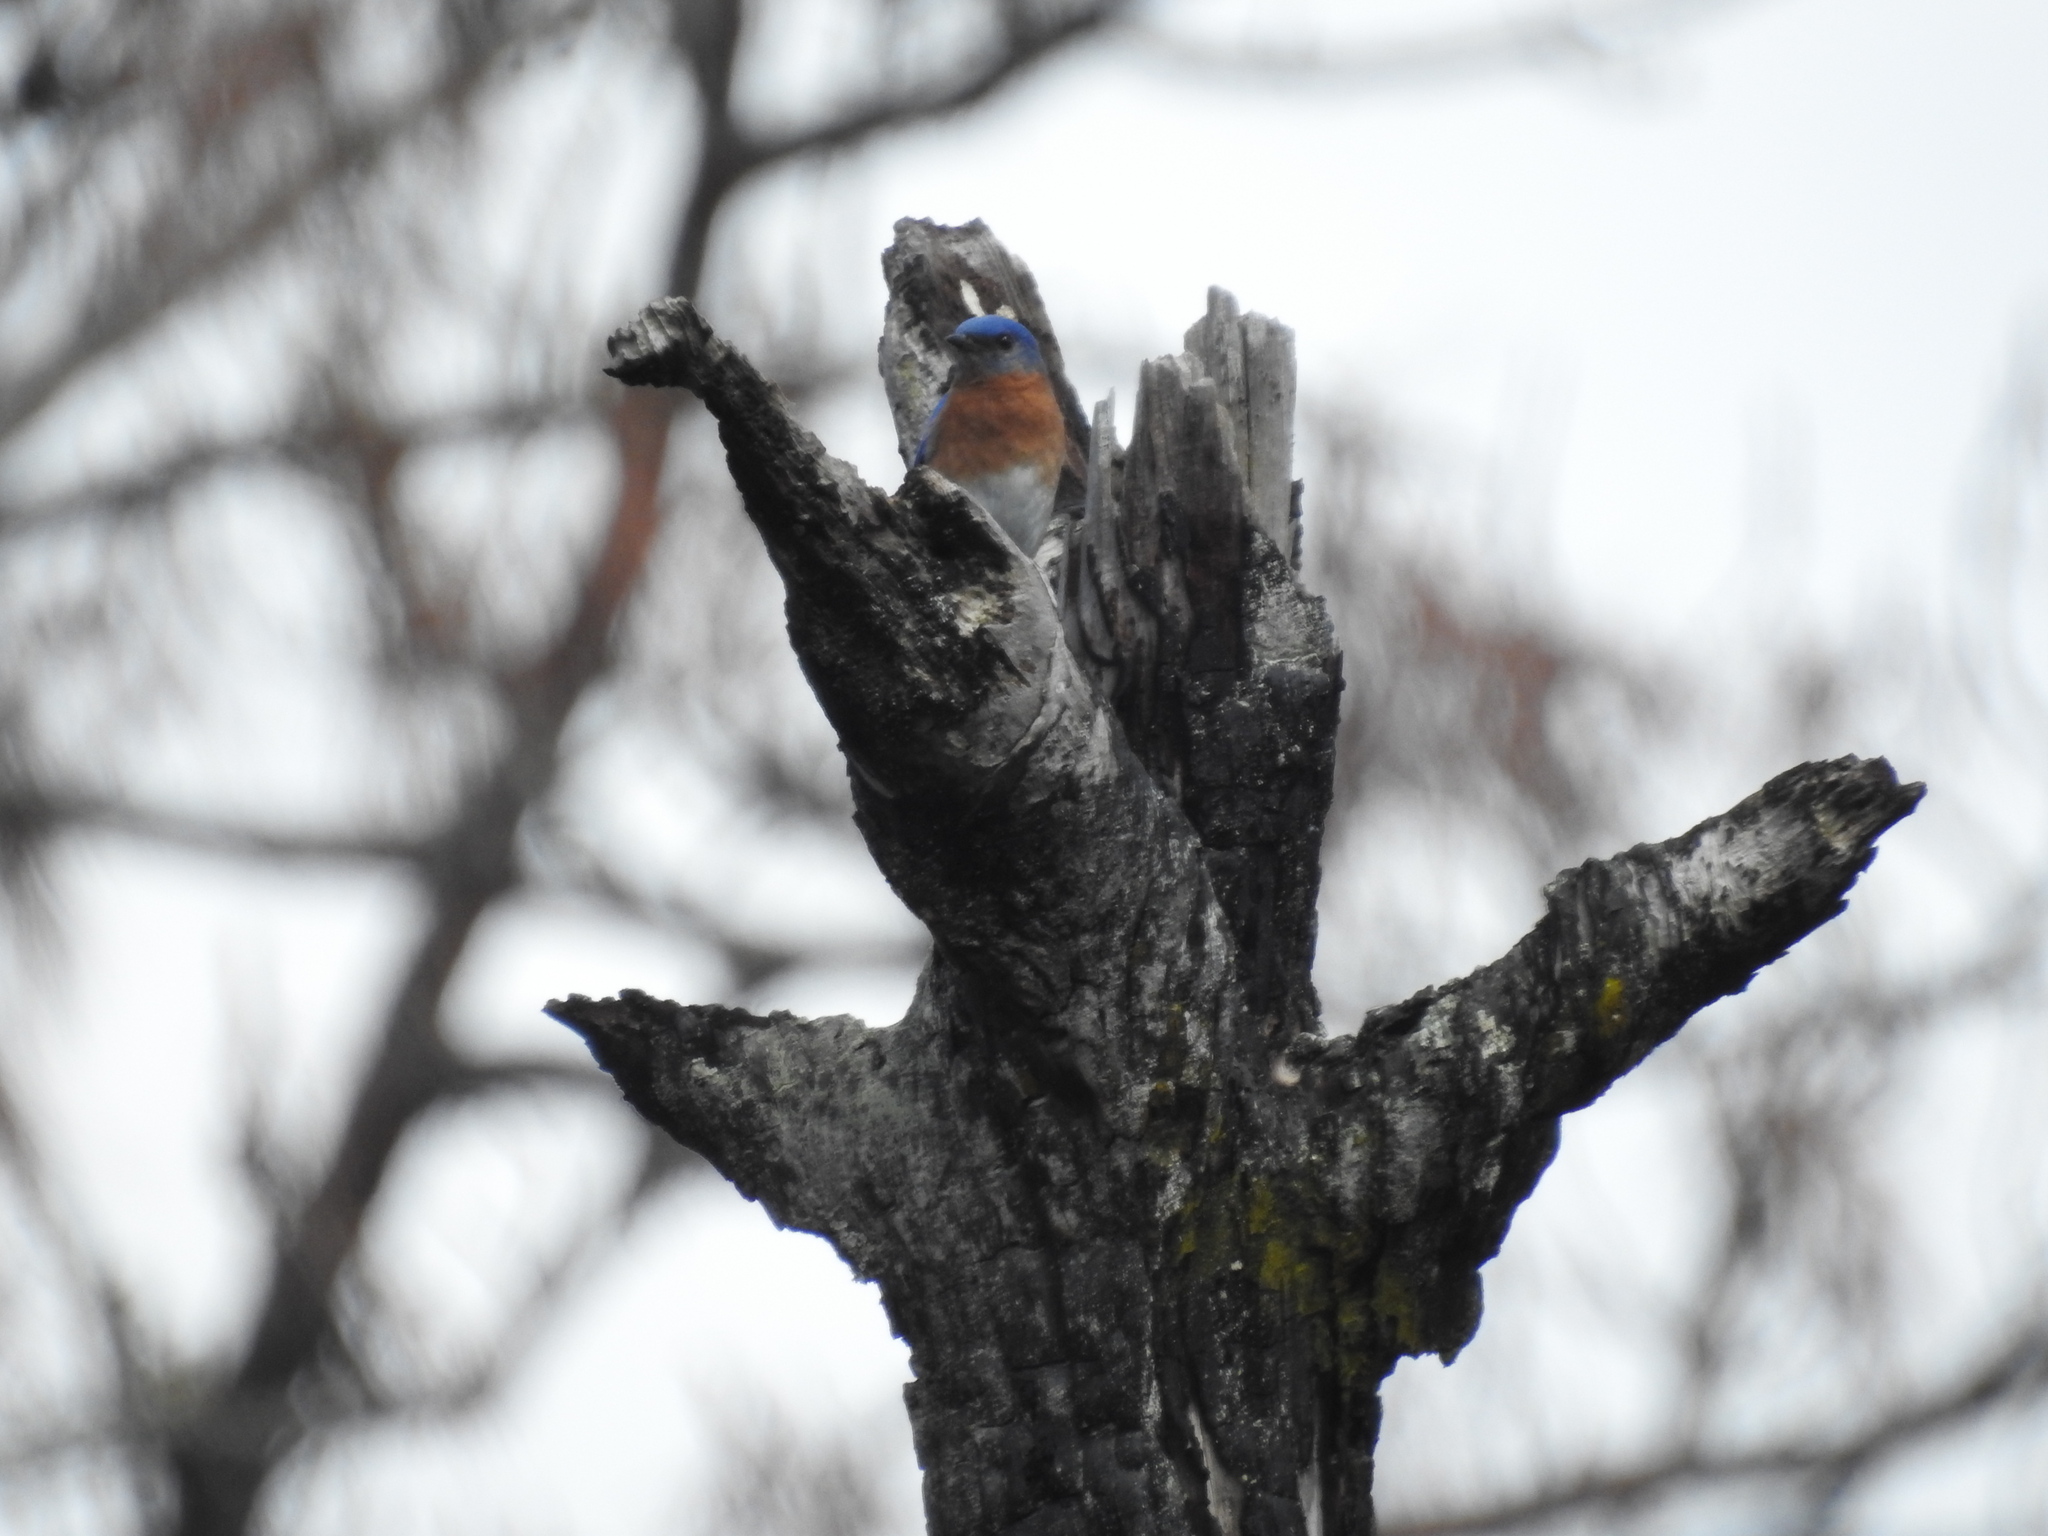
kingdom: Animalia
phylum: Chordata
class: Aves
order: Passeriformes
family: Turdidae
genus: Sialia
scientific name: Sialia sialis
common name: Eastern bluebird
